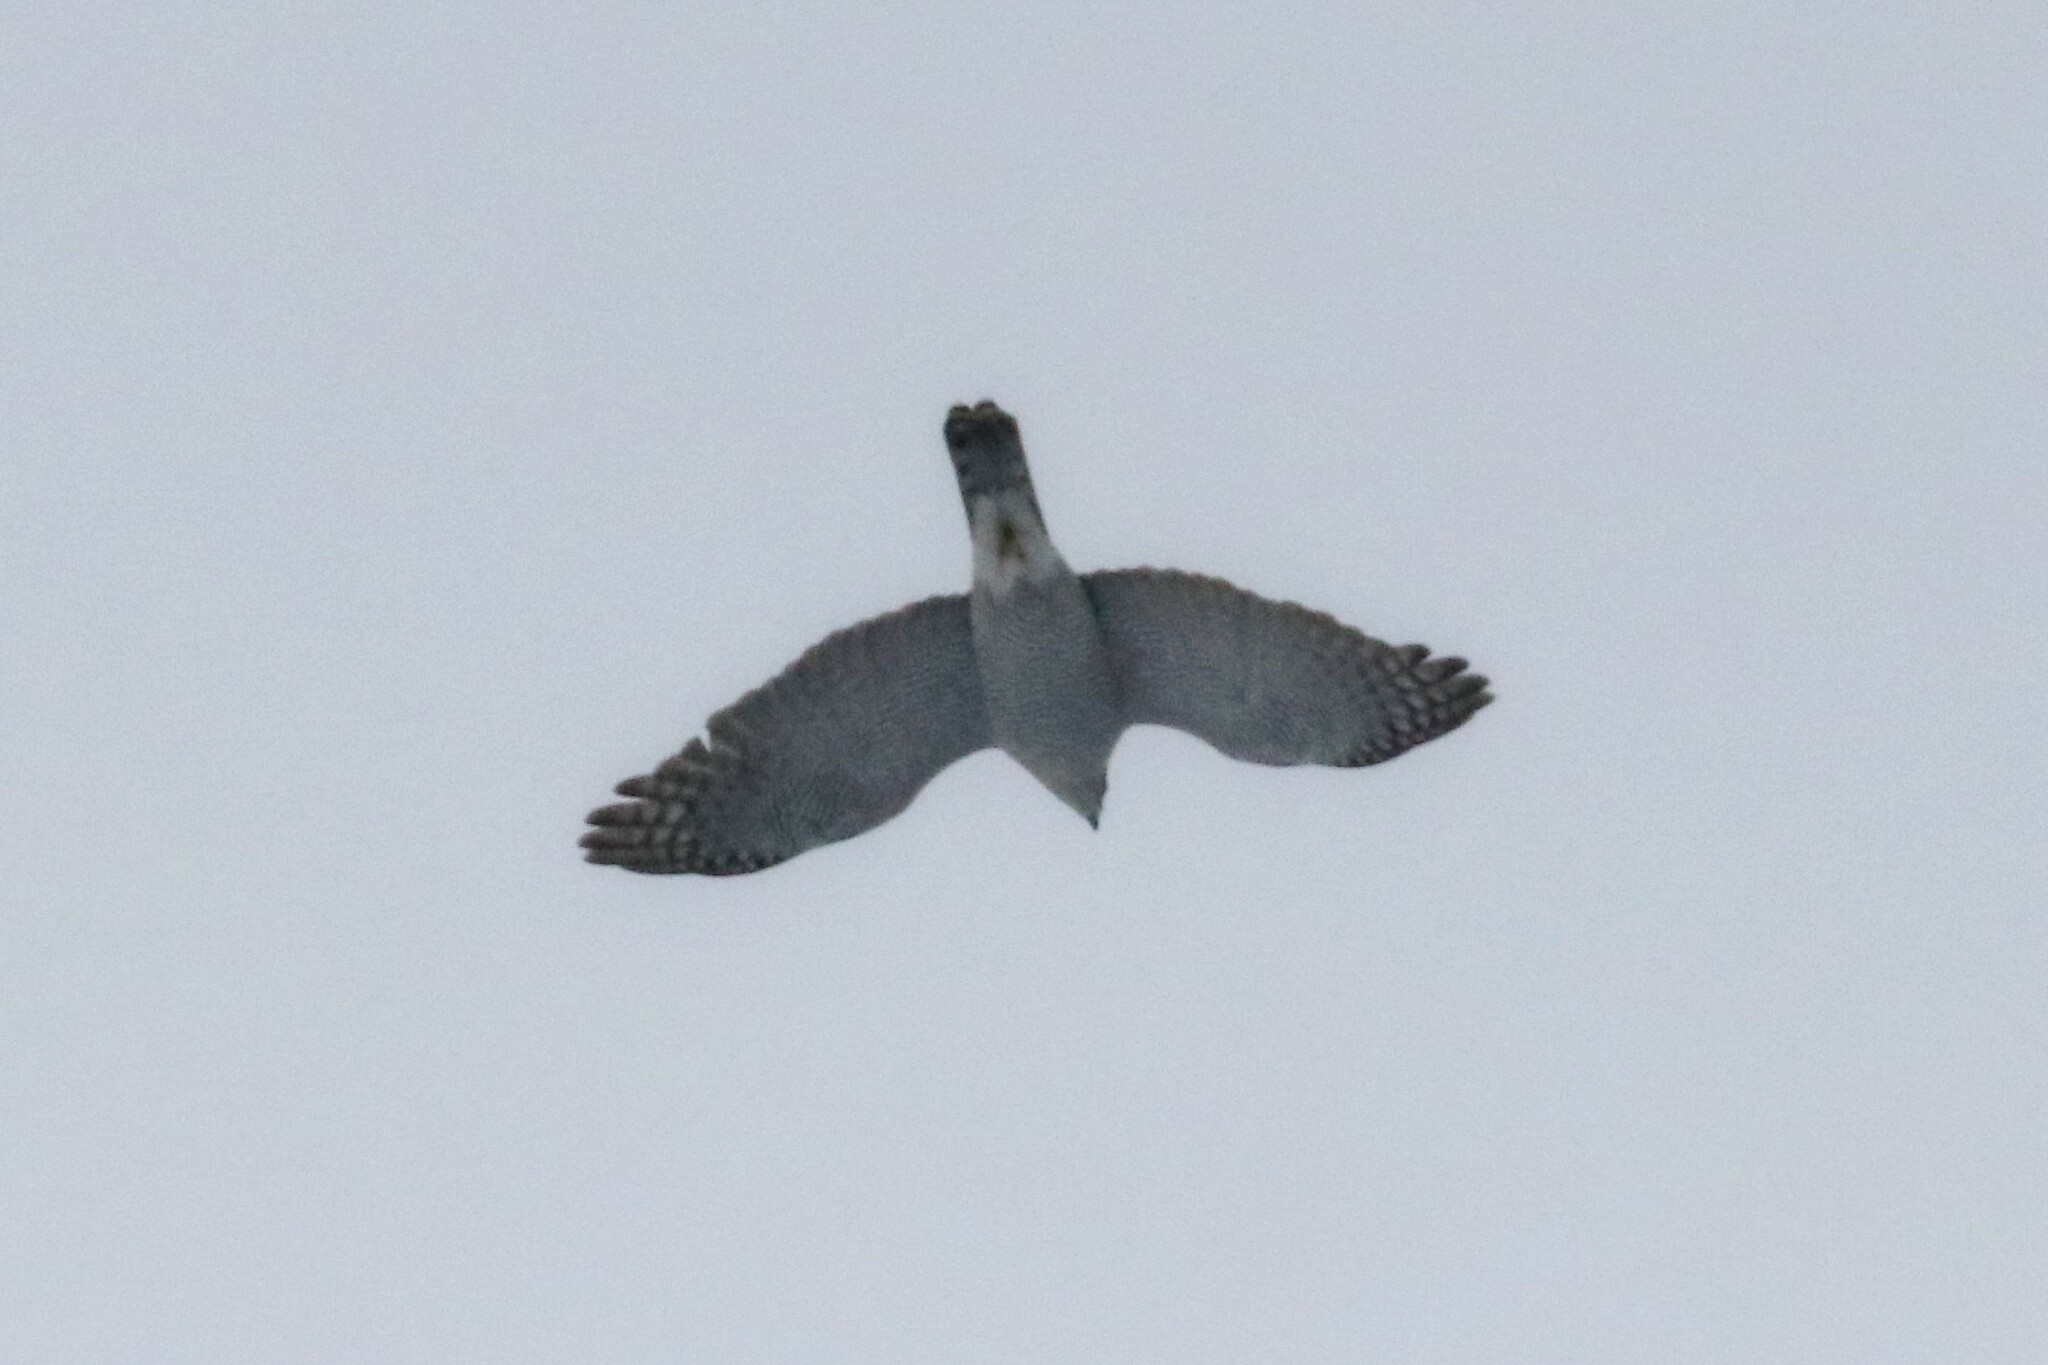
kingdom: Animalia
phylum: Chordata
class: Aves
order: Accipitriformes
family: Accipitridae
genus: Accipiter
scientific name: Accipiter gentilis
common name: Northern goshawk
